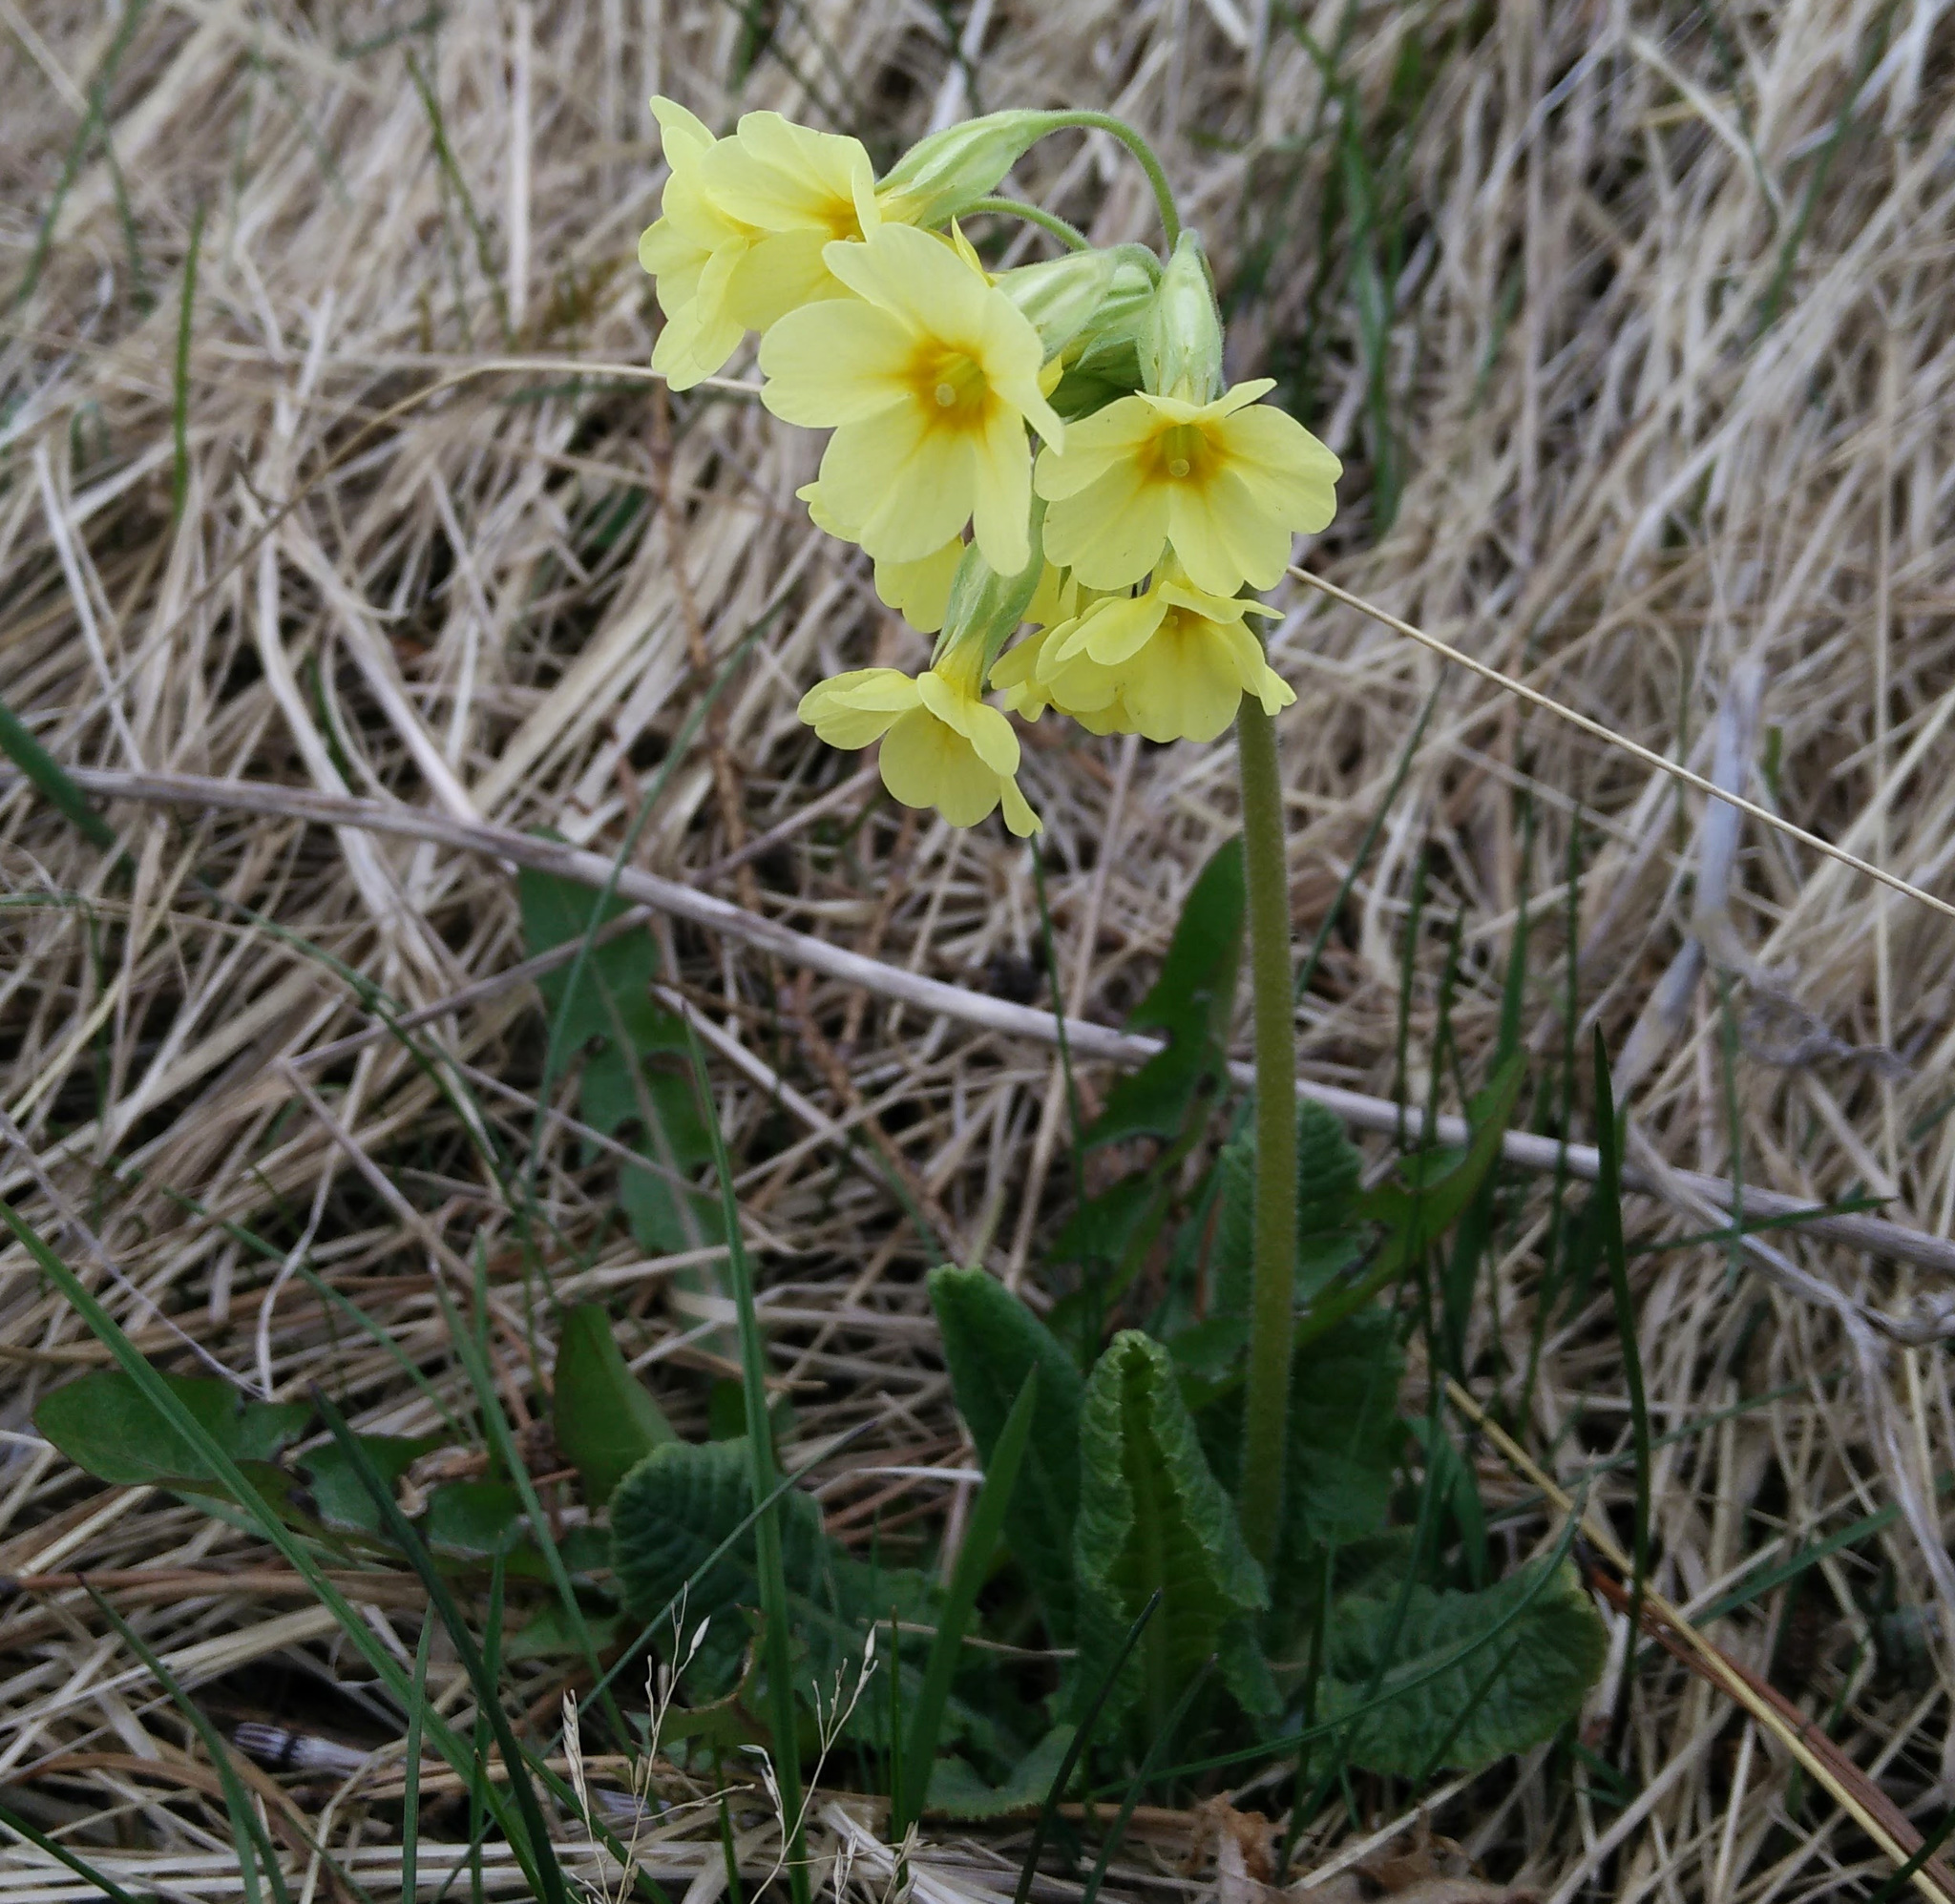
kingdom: Plantae
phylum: Tracheophyta
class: Magnoliopsida
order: Ericales
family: Primulaceae
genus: Primula
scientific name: Primula elatior
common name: Oxlip
